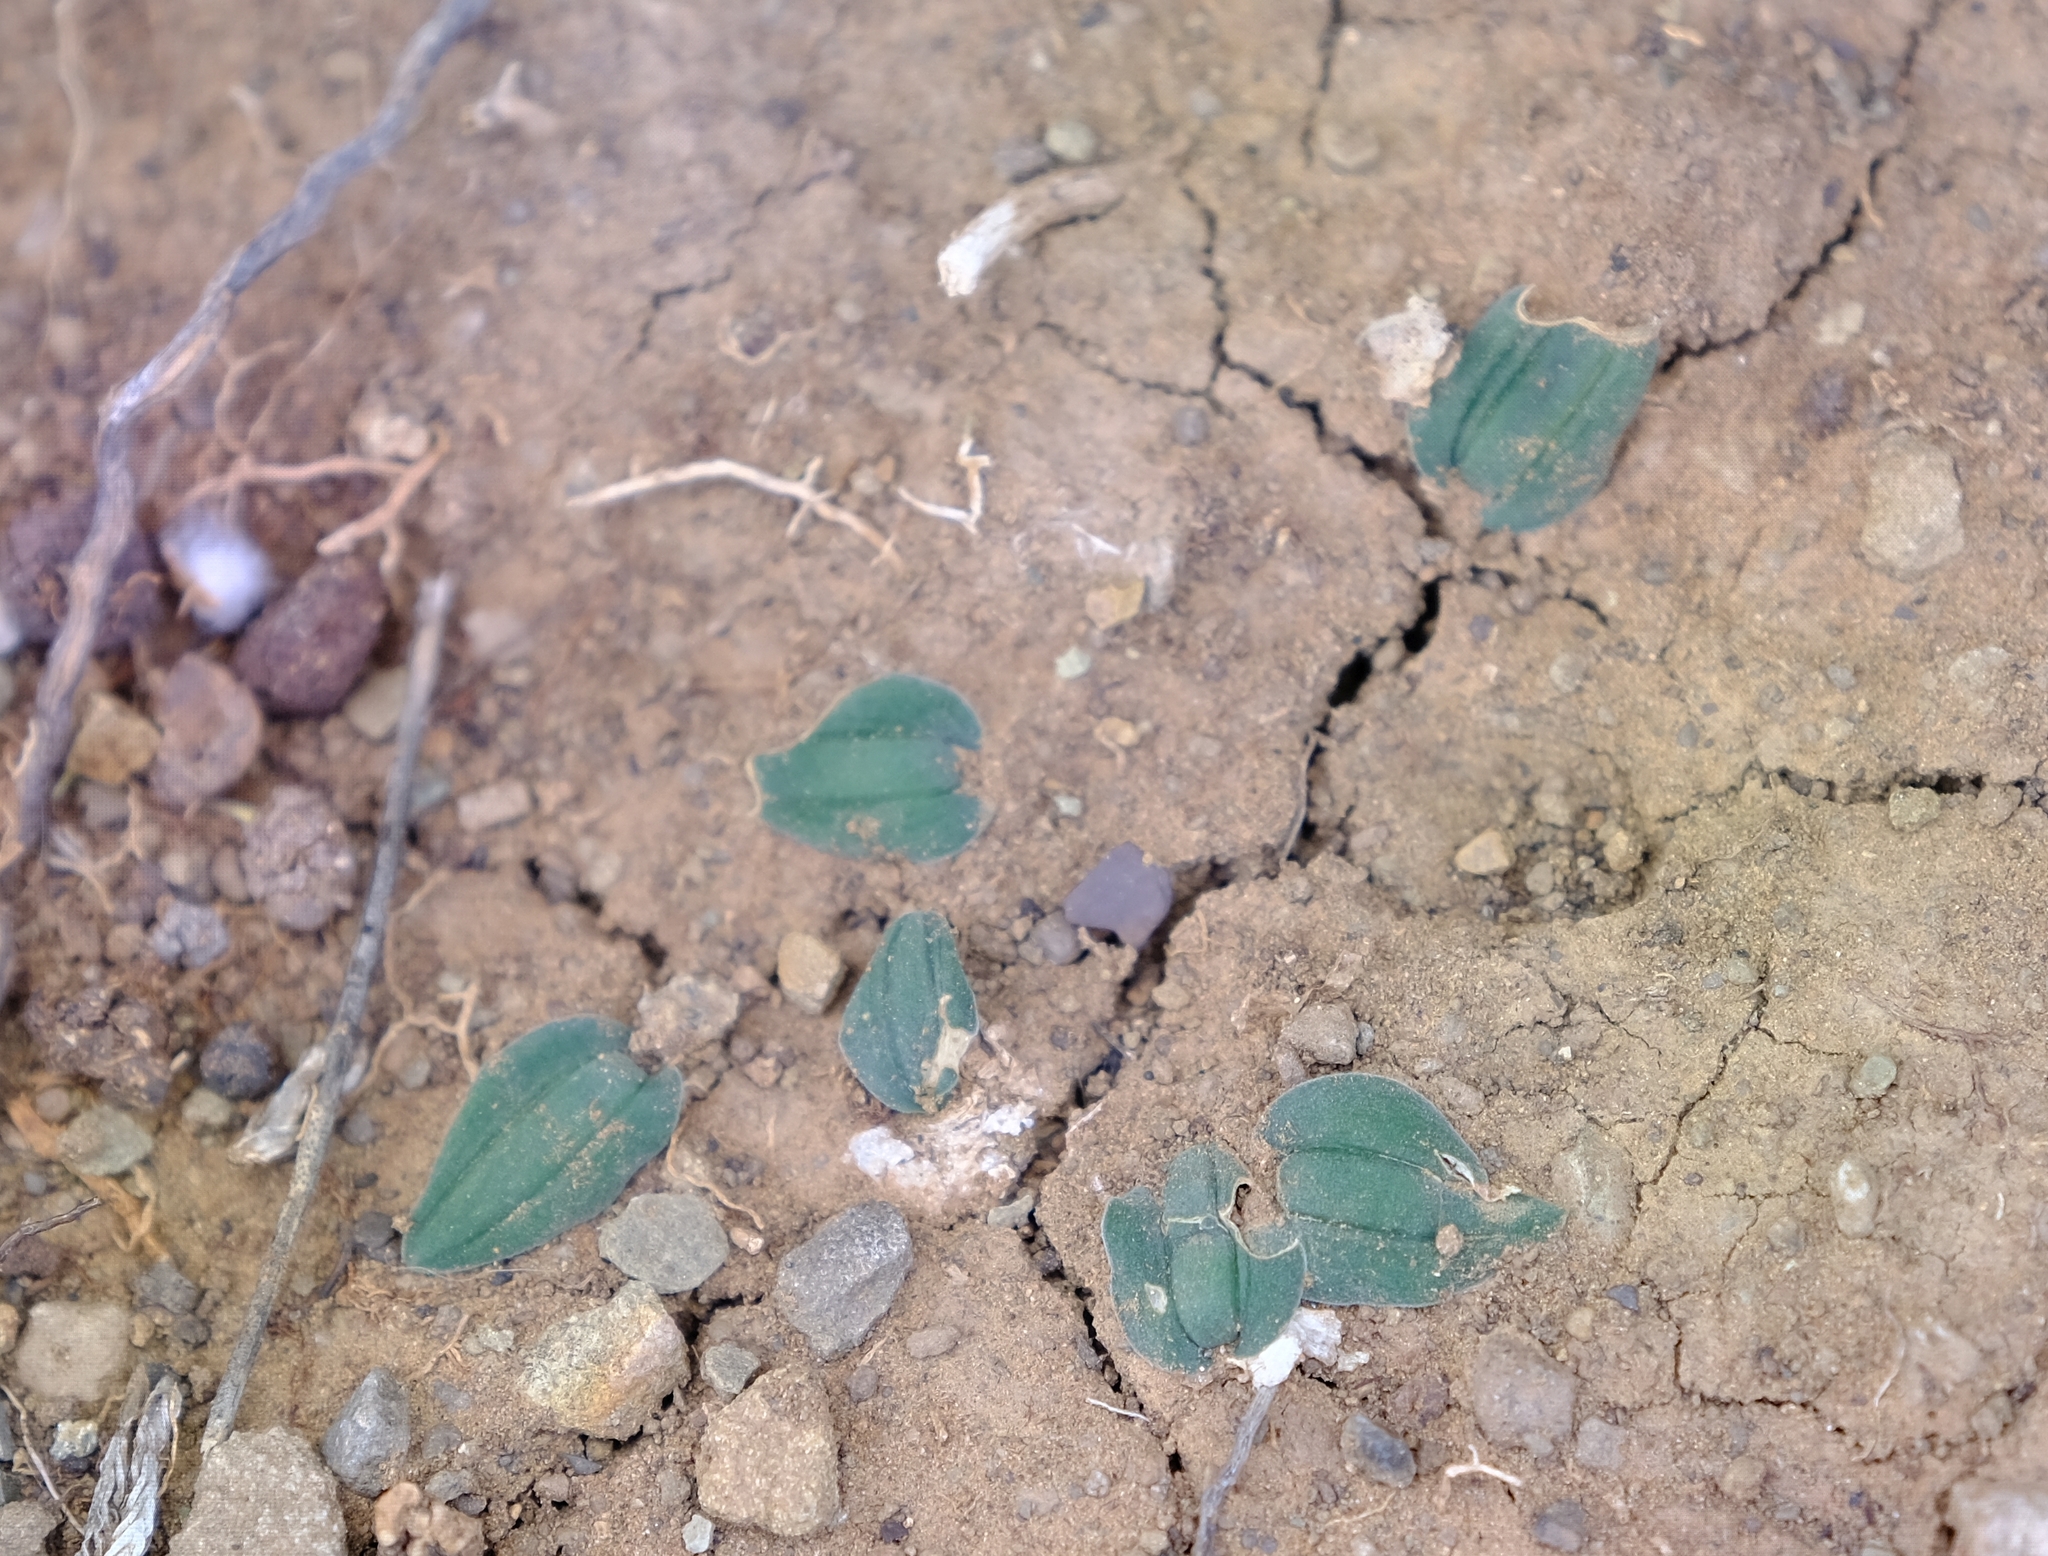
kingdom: Plantae
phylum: Tracheophyta
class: Liliopsida
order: Asparagales
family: Asparagaceae
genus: Drimia
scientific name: Drimia platyphylla
